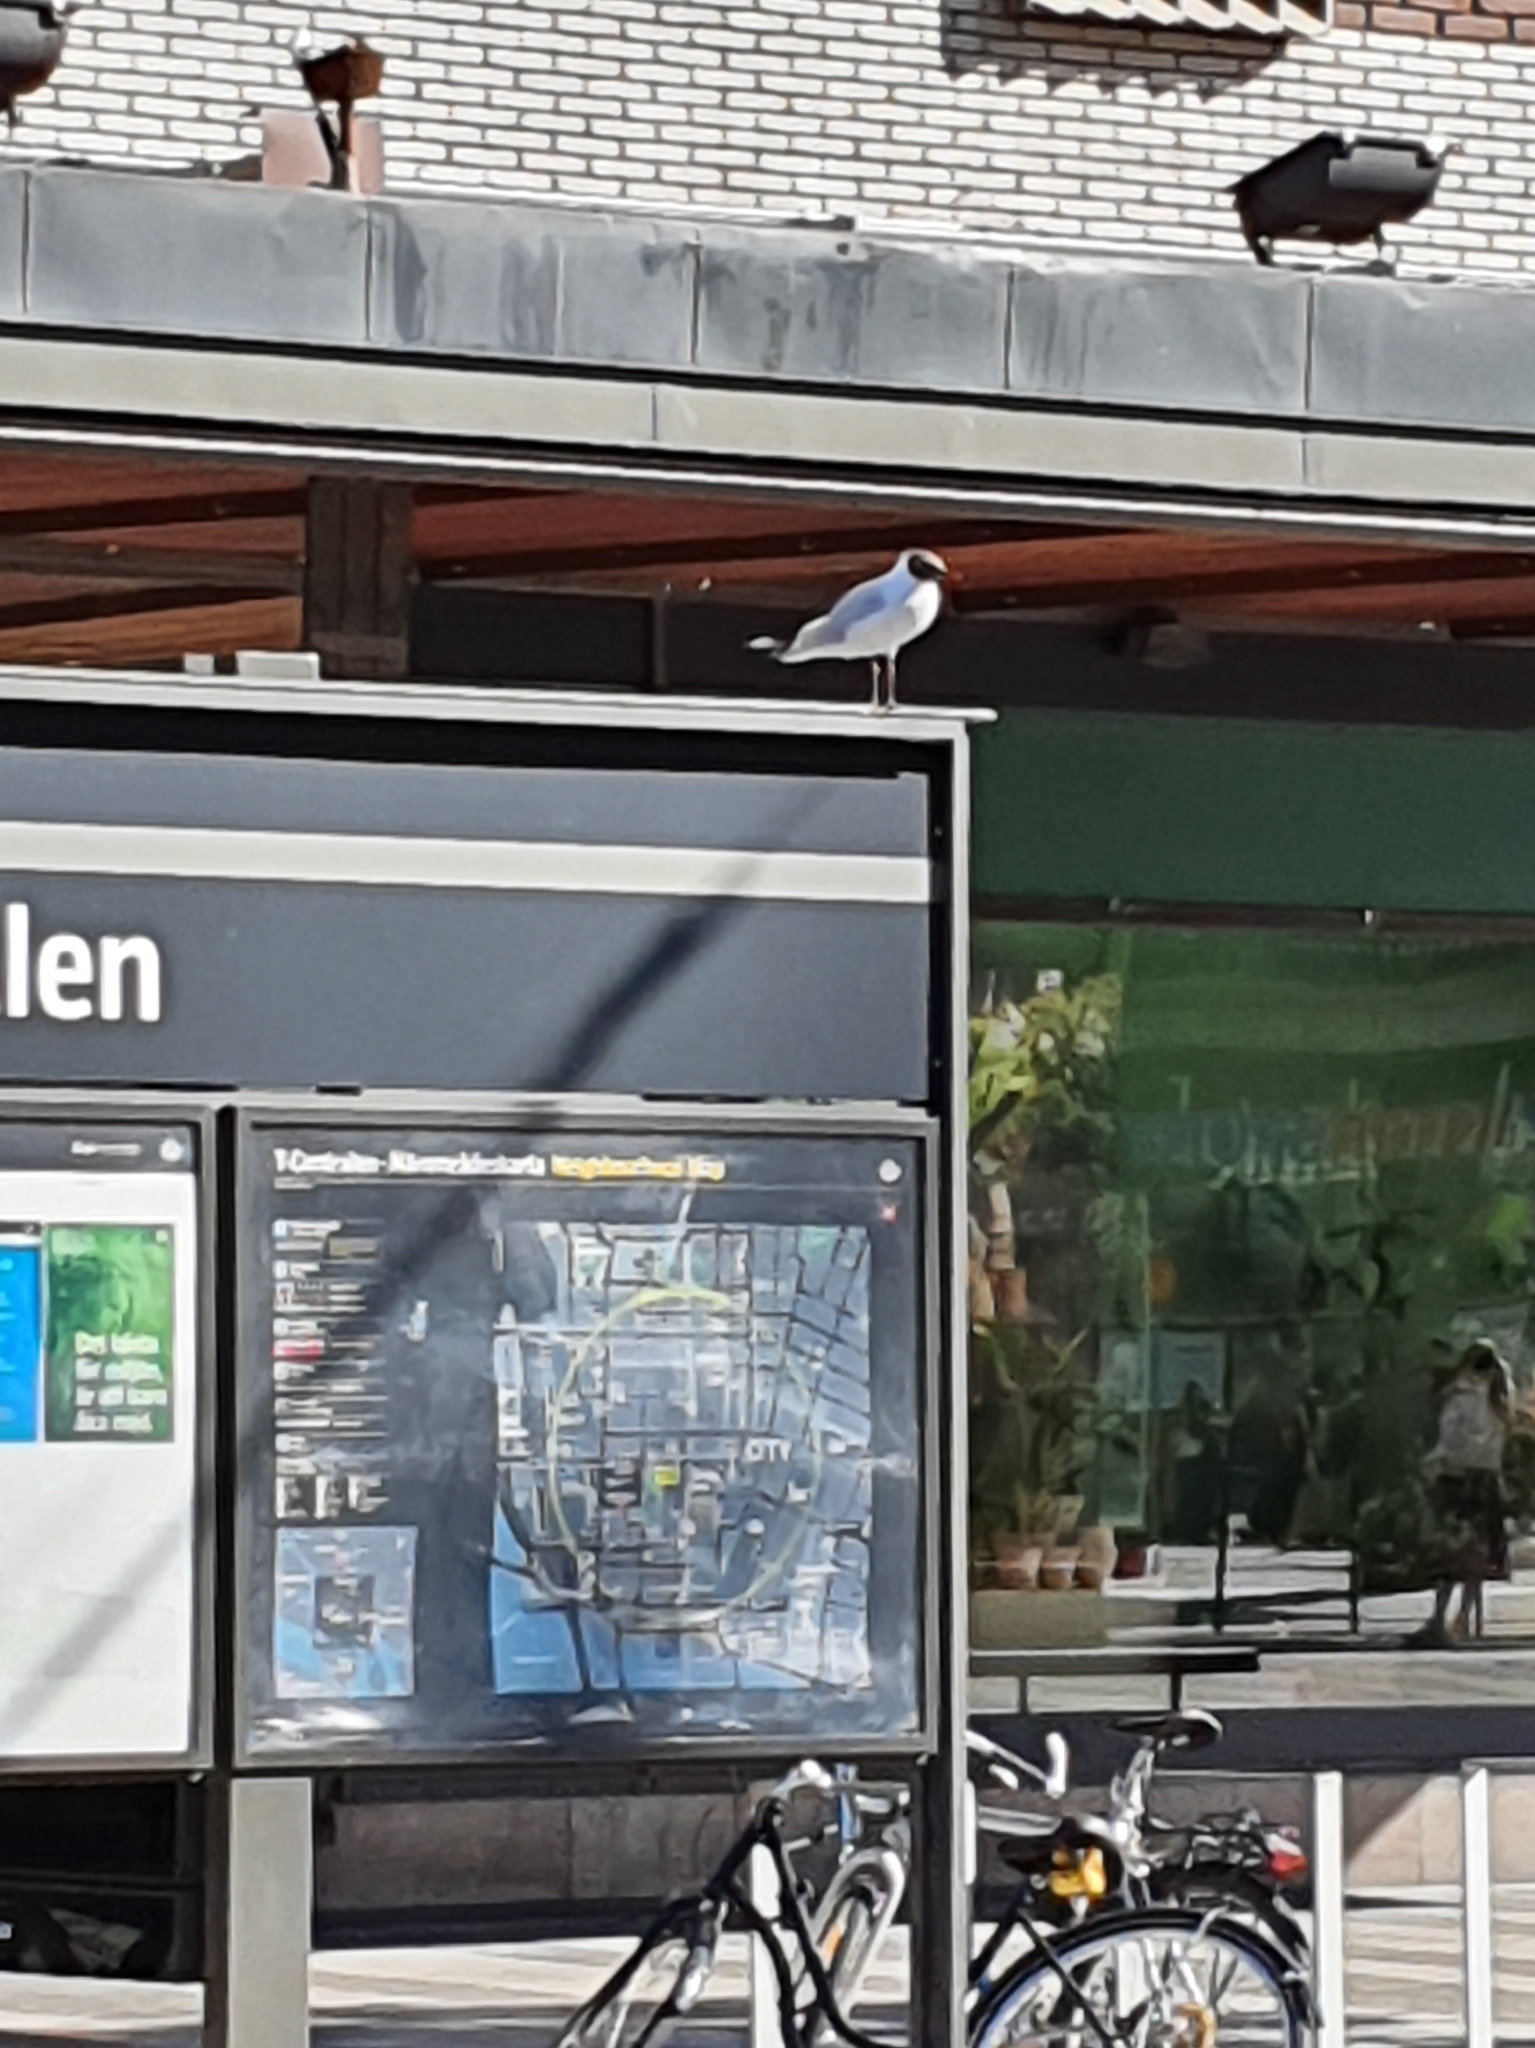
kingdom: Animalia
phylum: Chordata
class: Aves
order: Charadriiformes
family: Laridae
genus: Chroicocephalus
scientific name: Chroicocephalus ridibundus
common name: Black-headed gull
